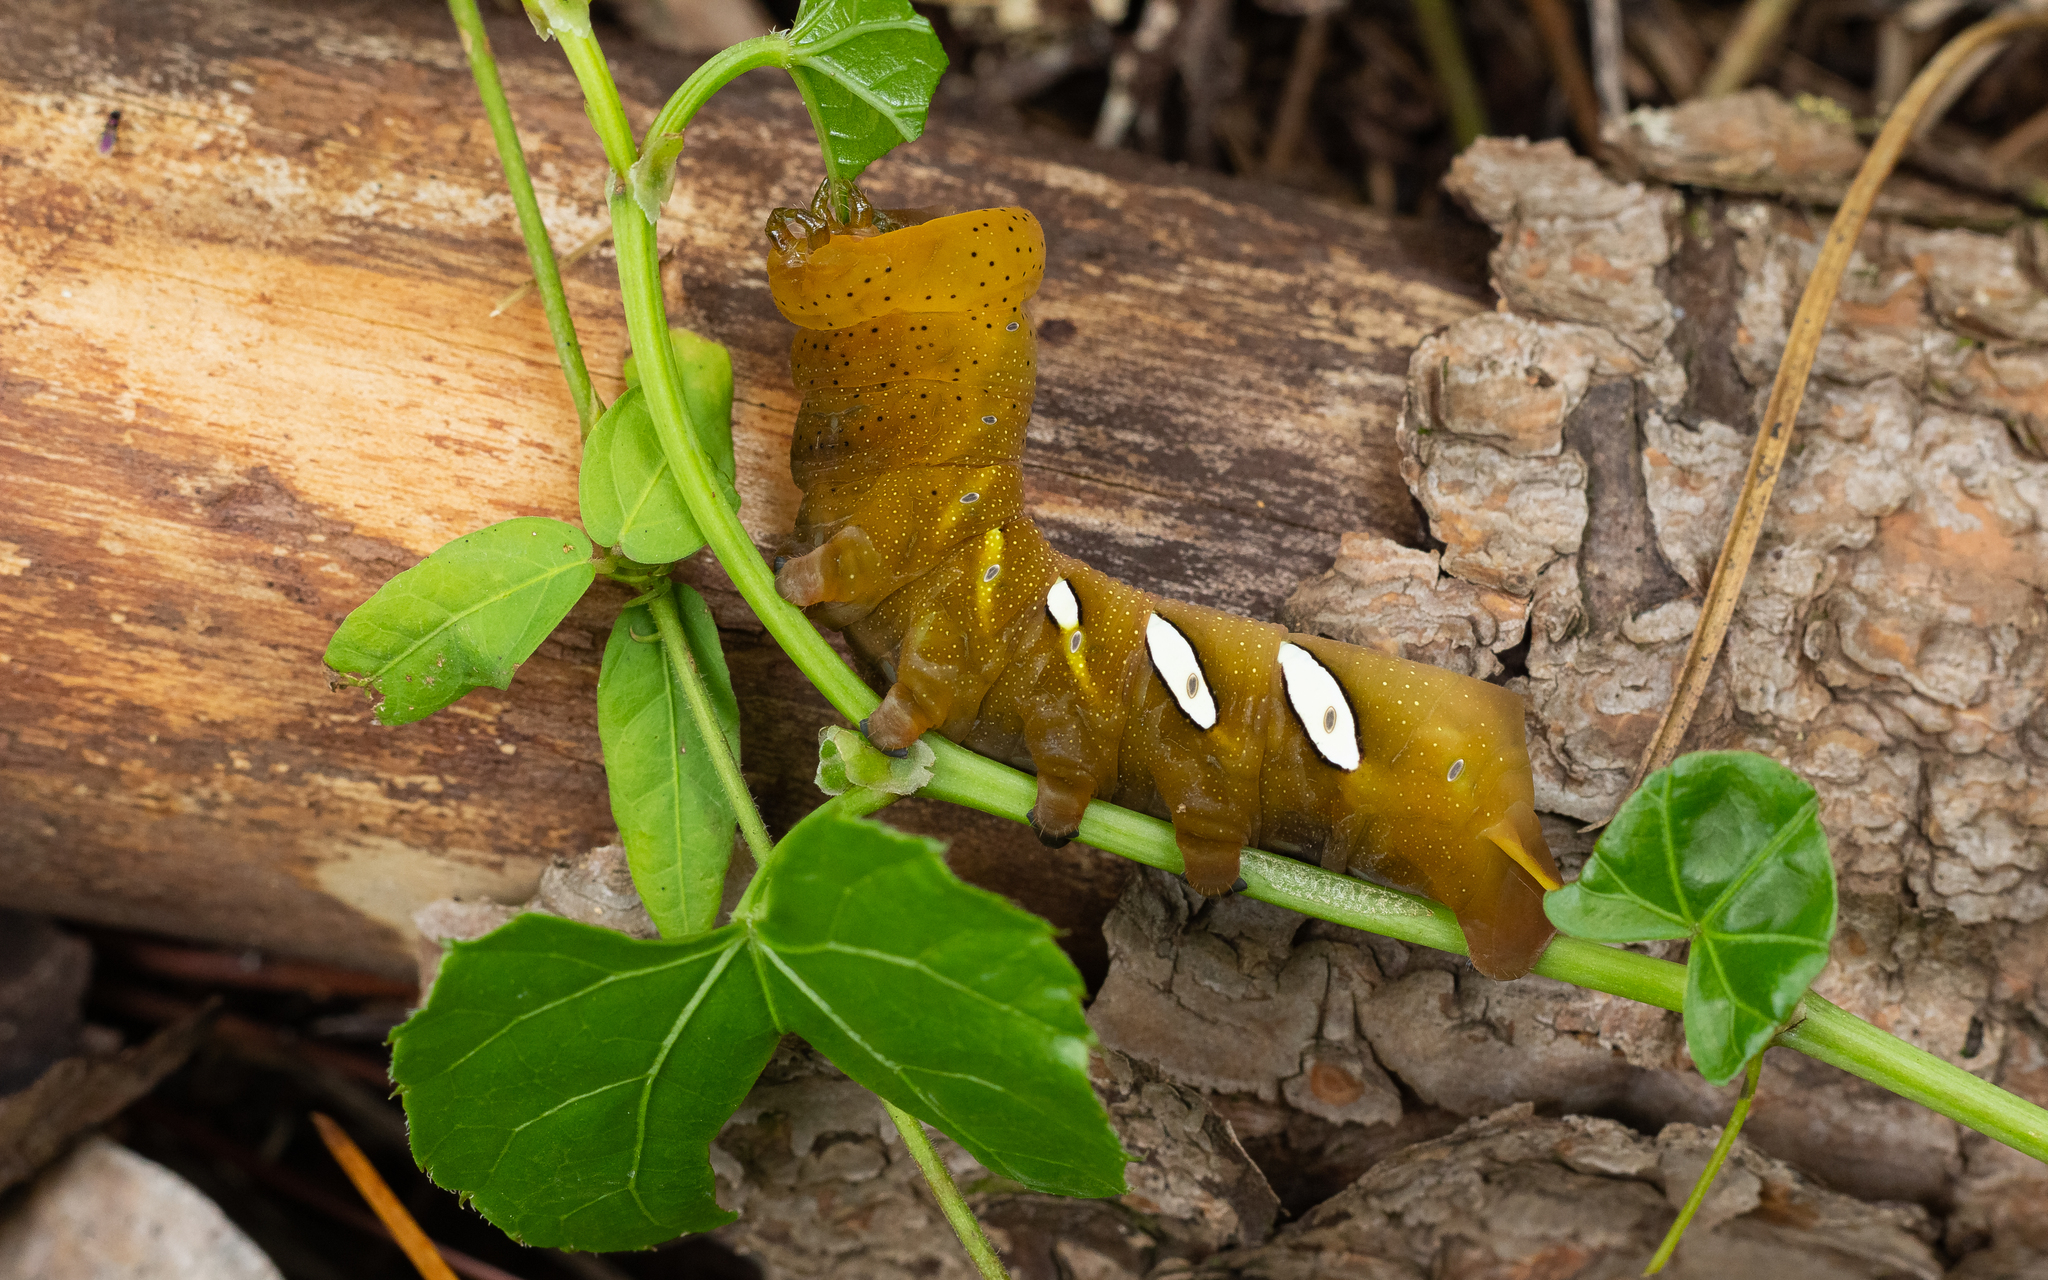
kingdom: Animalia
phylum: Arthropoda
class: Insecta
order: Lepidoptera
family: Sphingidae
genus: Eumorpha
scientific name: Eumorpha satellitia
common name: Satellite sphinx
